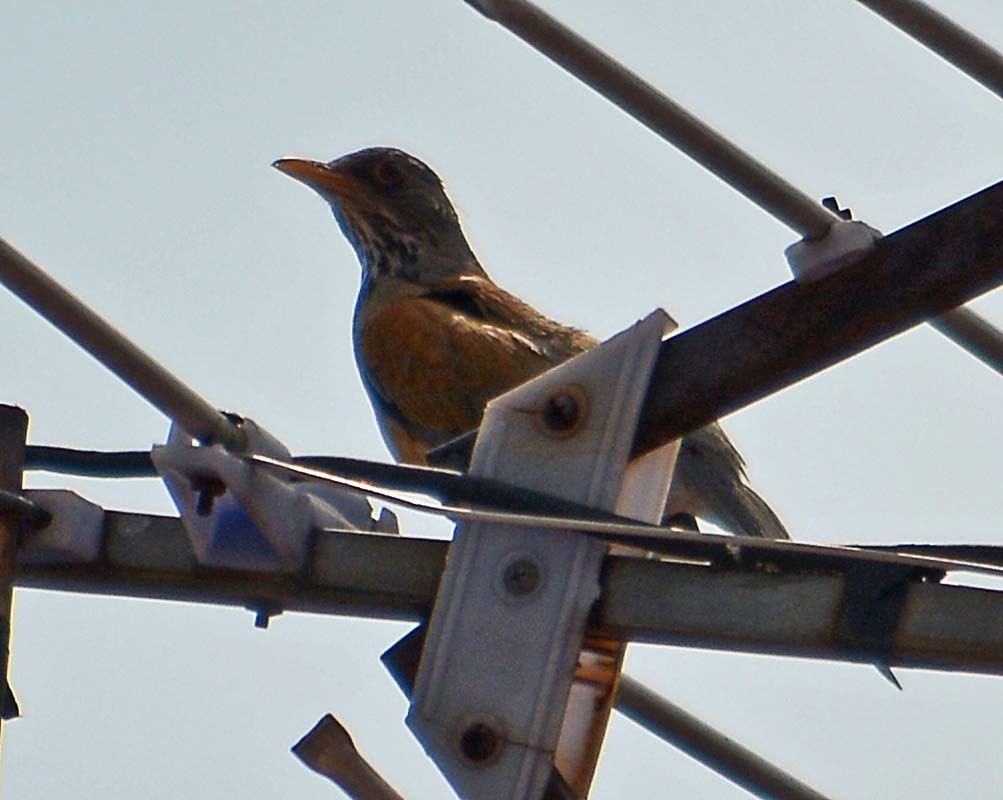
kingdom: Animalia
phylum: Chordata
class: Aves
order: Passeriformes
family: Turdidae
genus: Turdus
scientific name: Turdus rufopalliatus
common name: Rufous-backed robin
